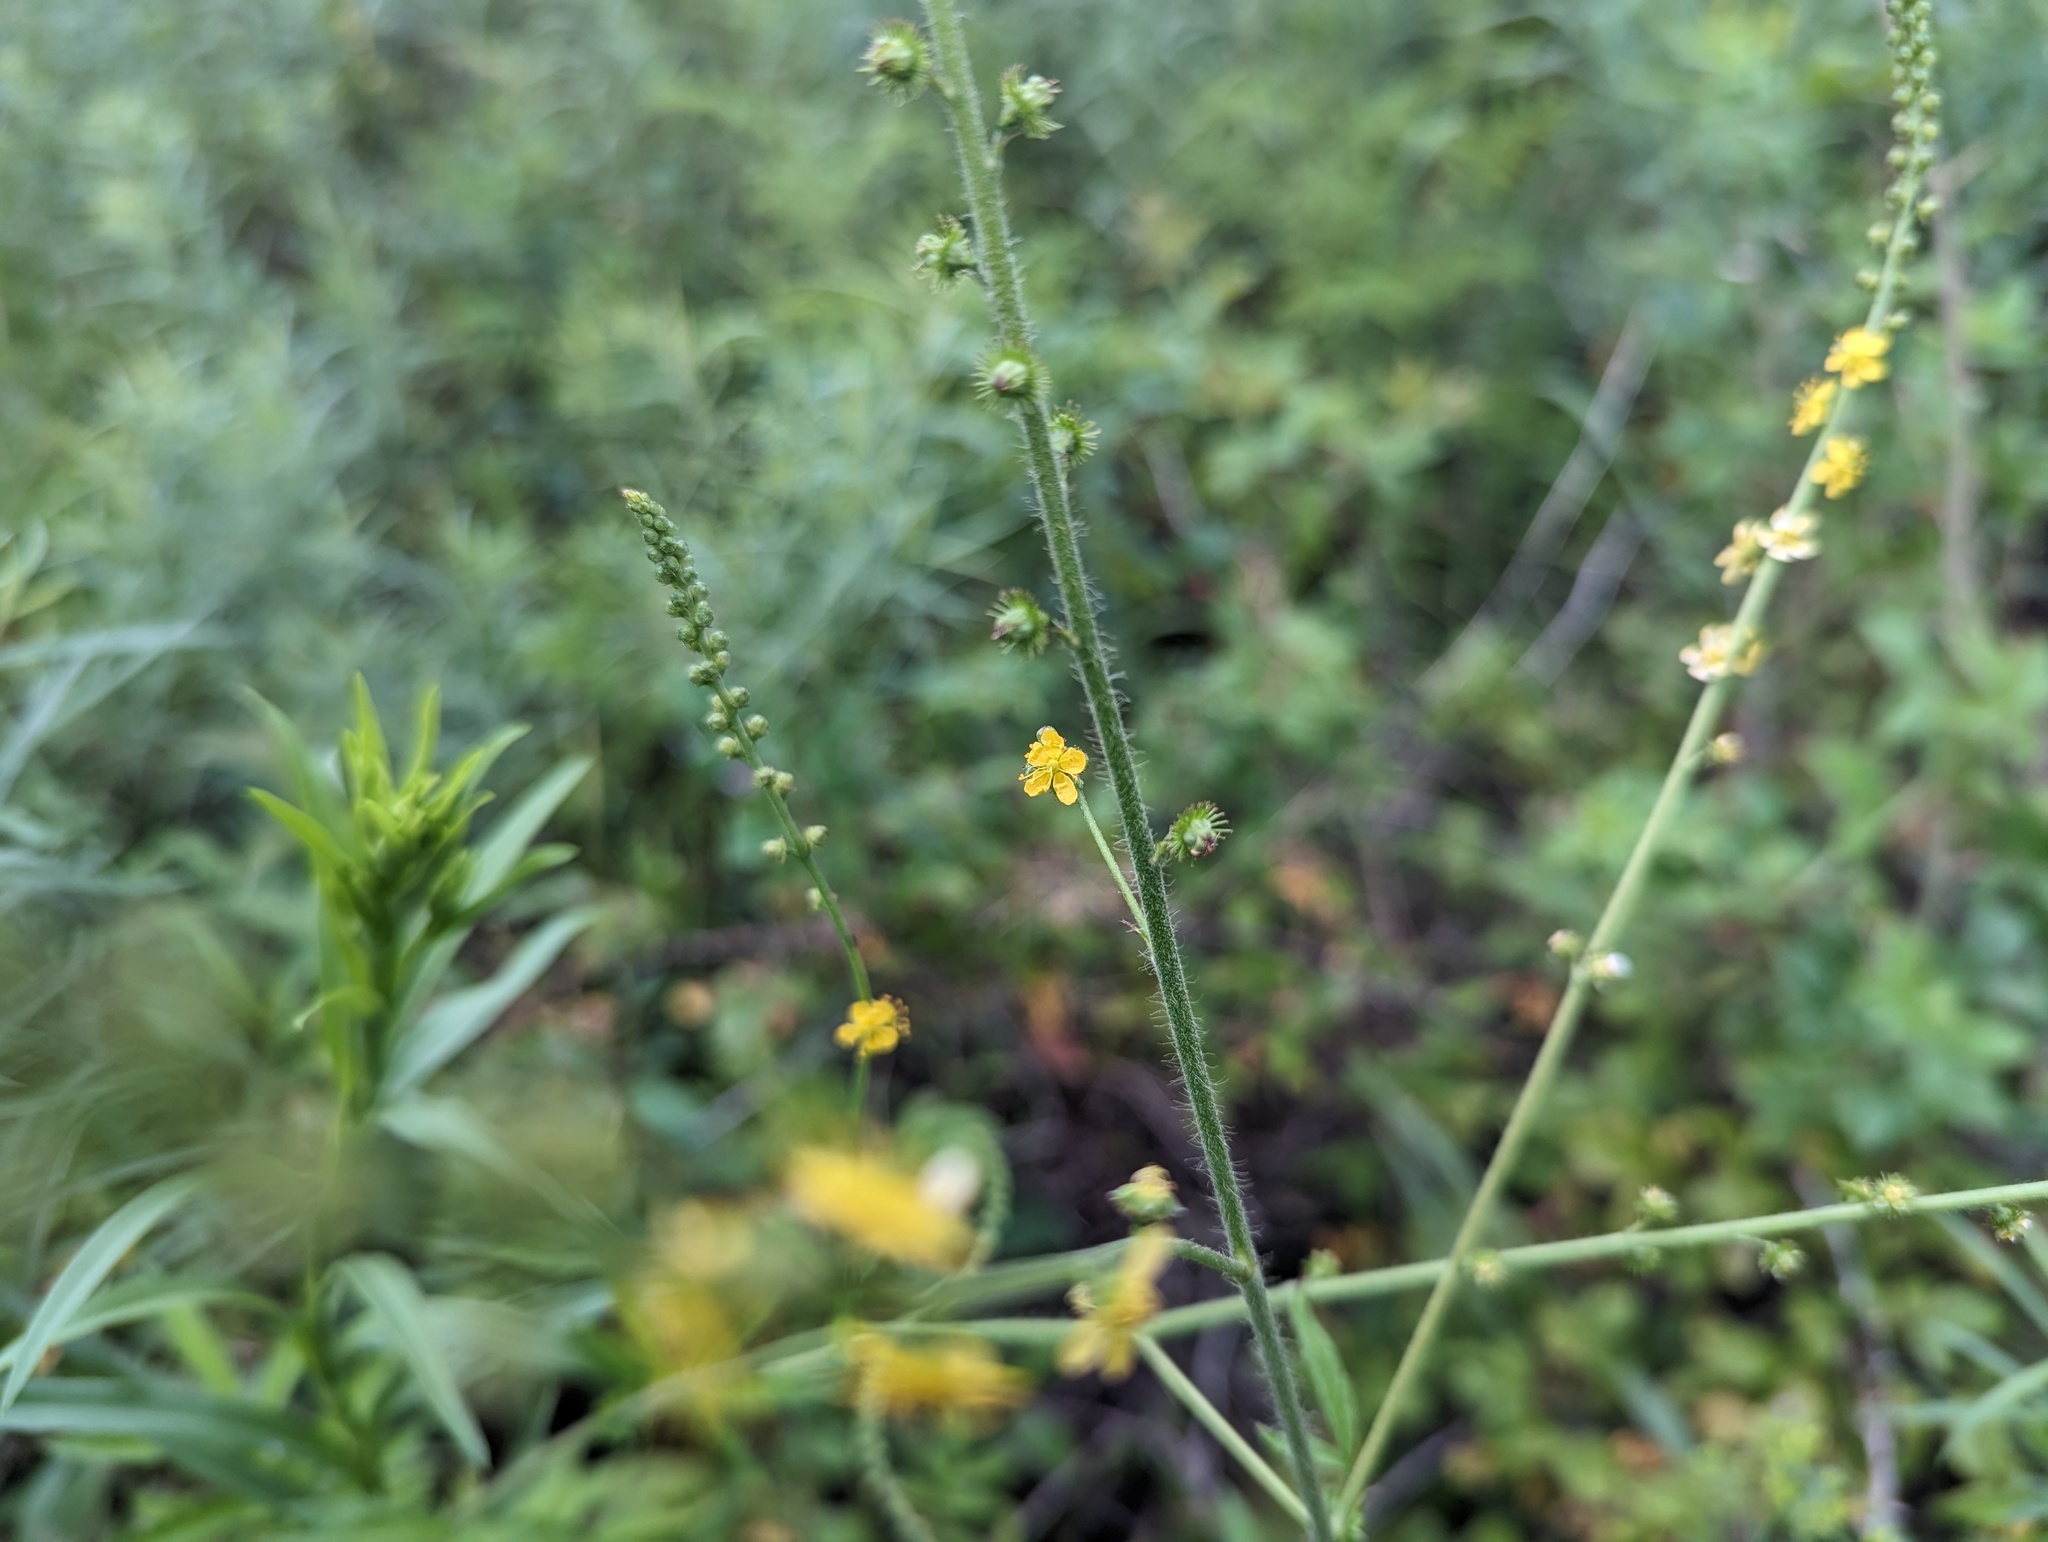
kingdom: Plantae
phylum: Tracheophyta
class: Magnoliopsida
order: Rosales
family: Rosaceae
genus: Agrimonia
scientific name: Agrimonia parviflora
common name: Harvest-lice
